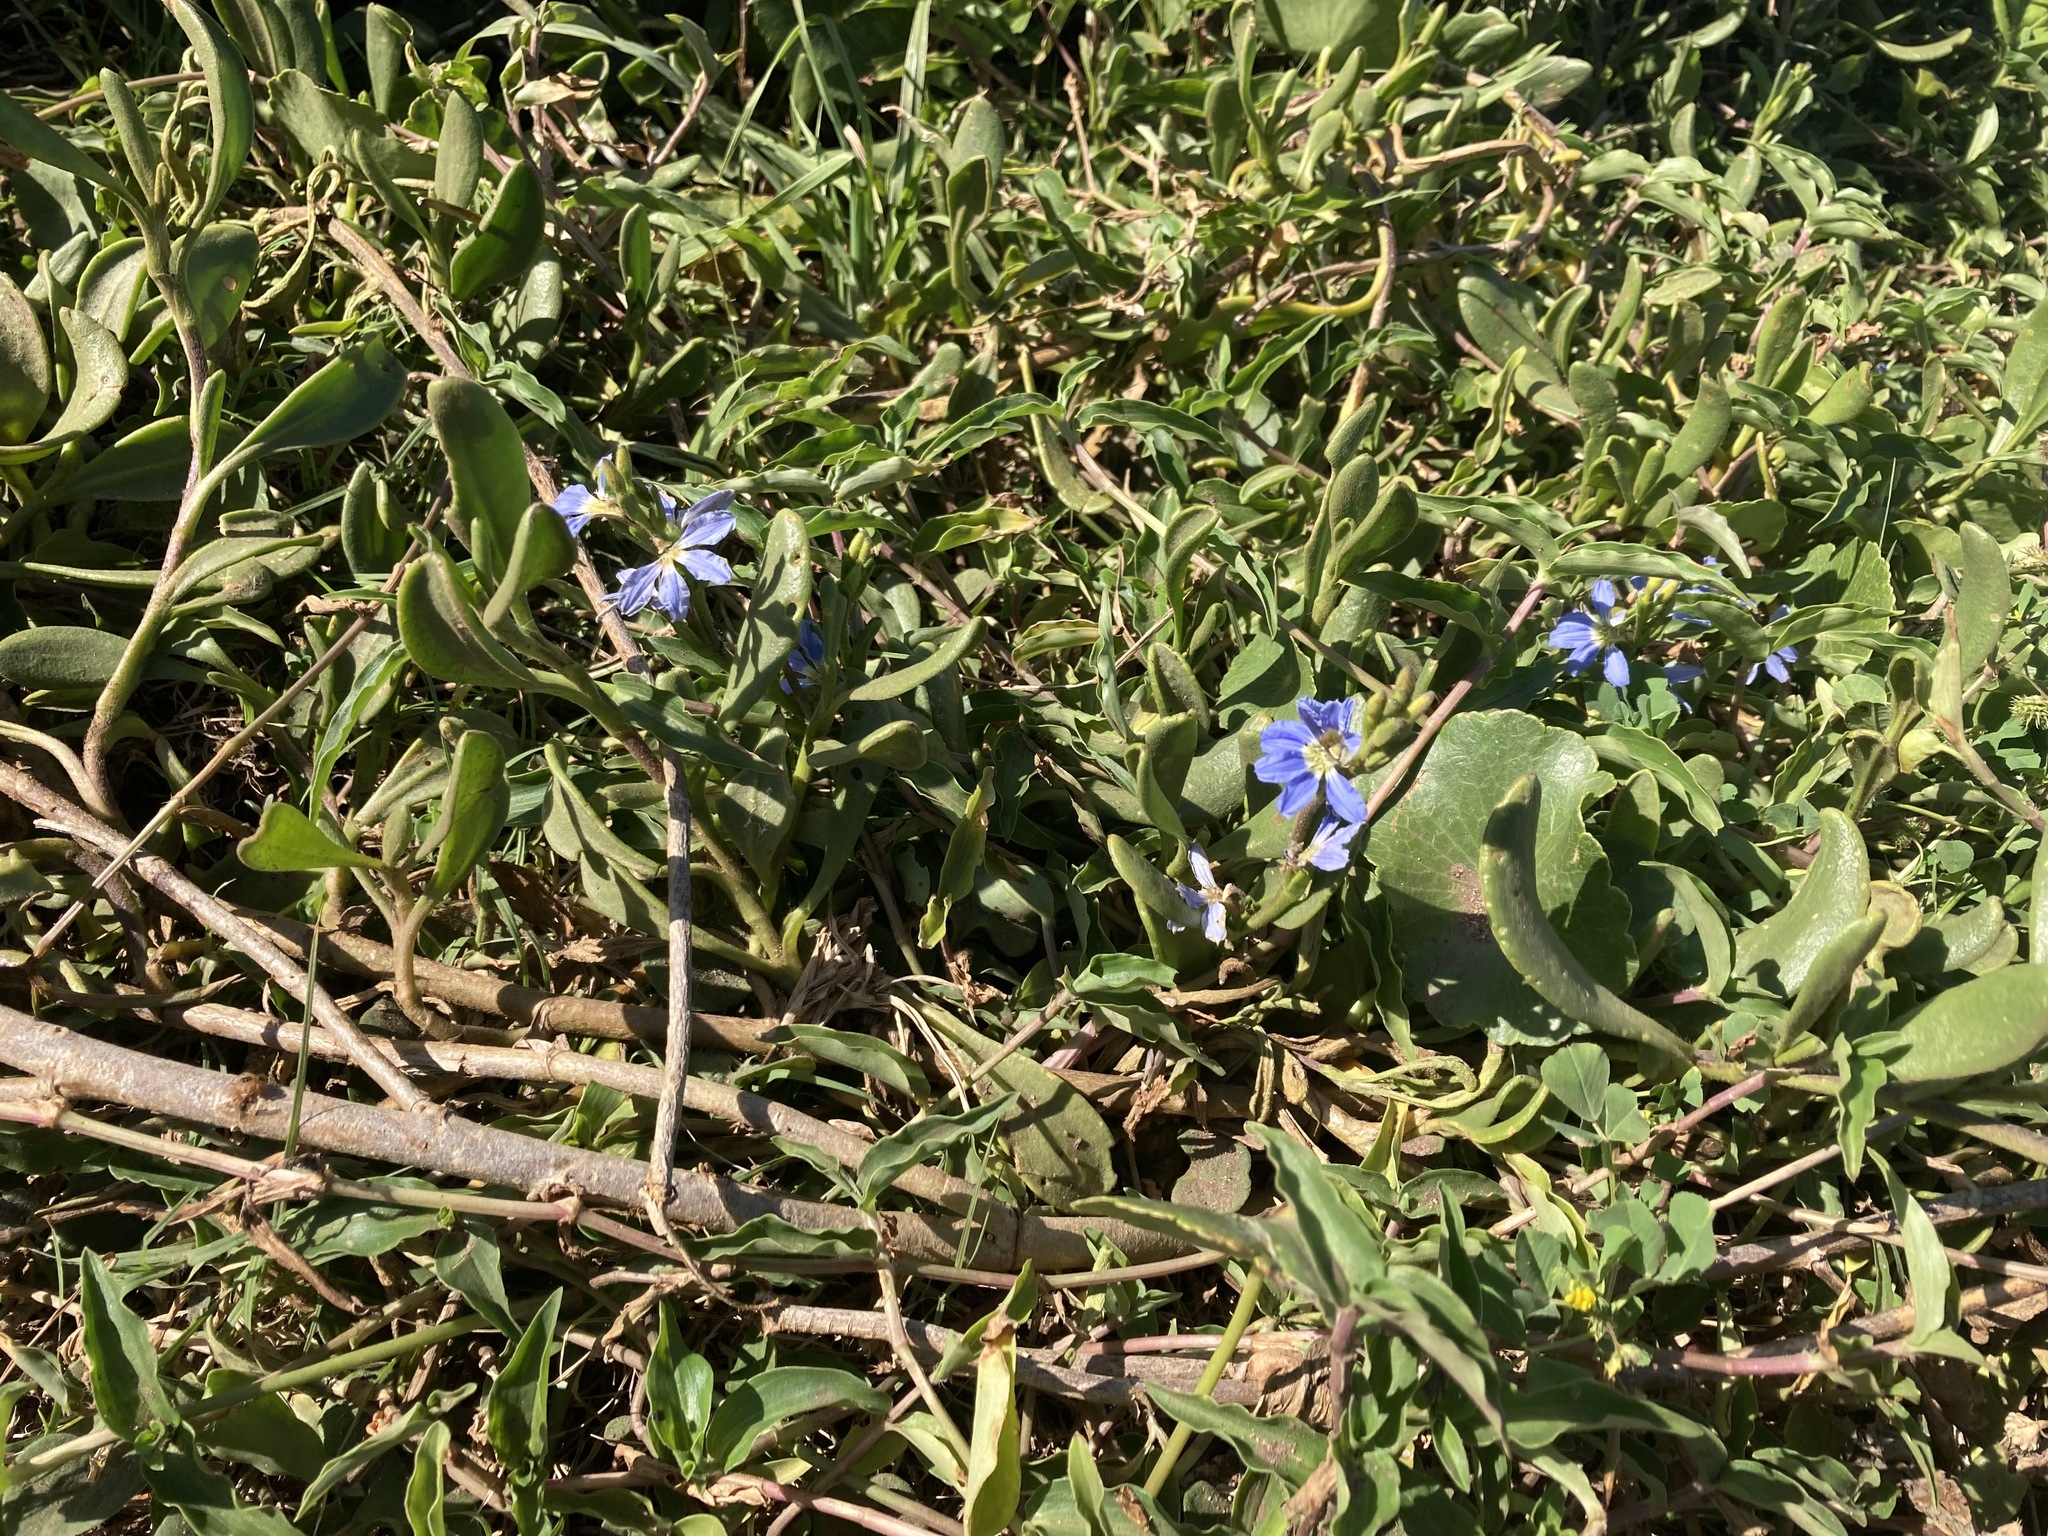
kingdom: Plantae
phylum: Tracheophyta
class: Magnoliopsida
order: Asterales
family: Goodeniaceae
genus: Scaevola
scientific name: Scaevola calendulacea
